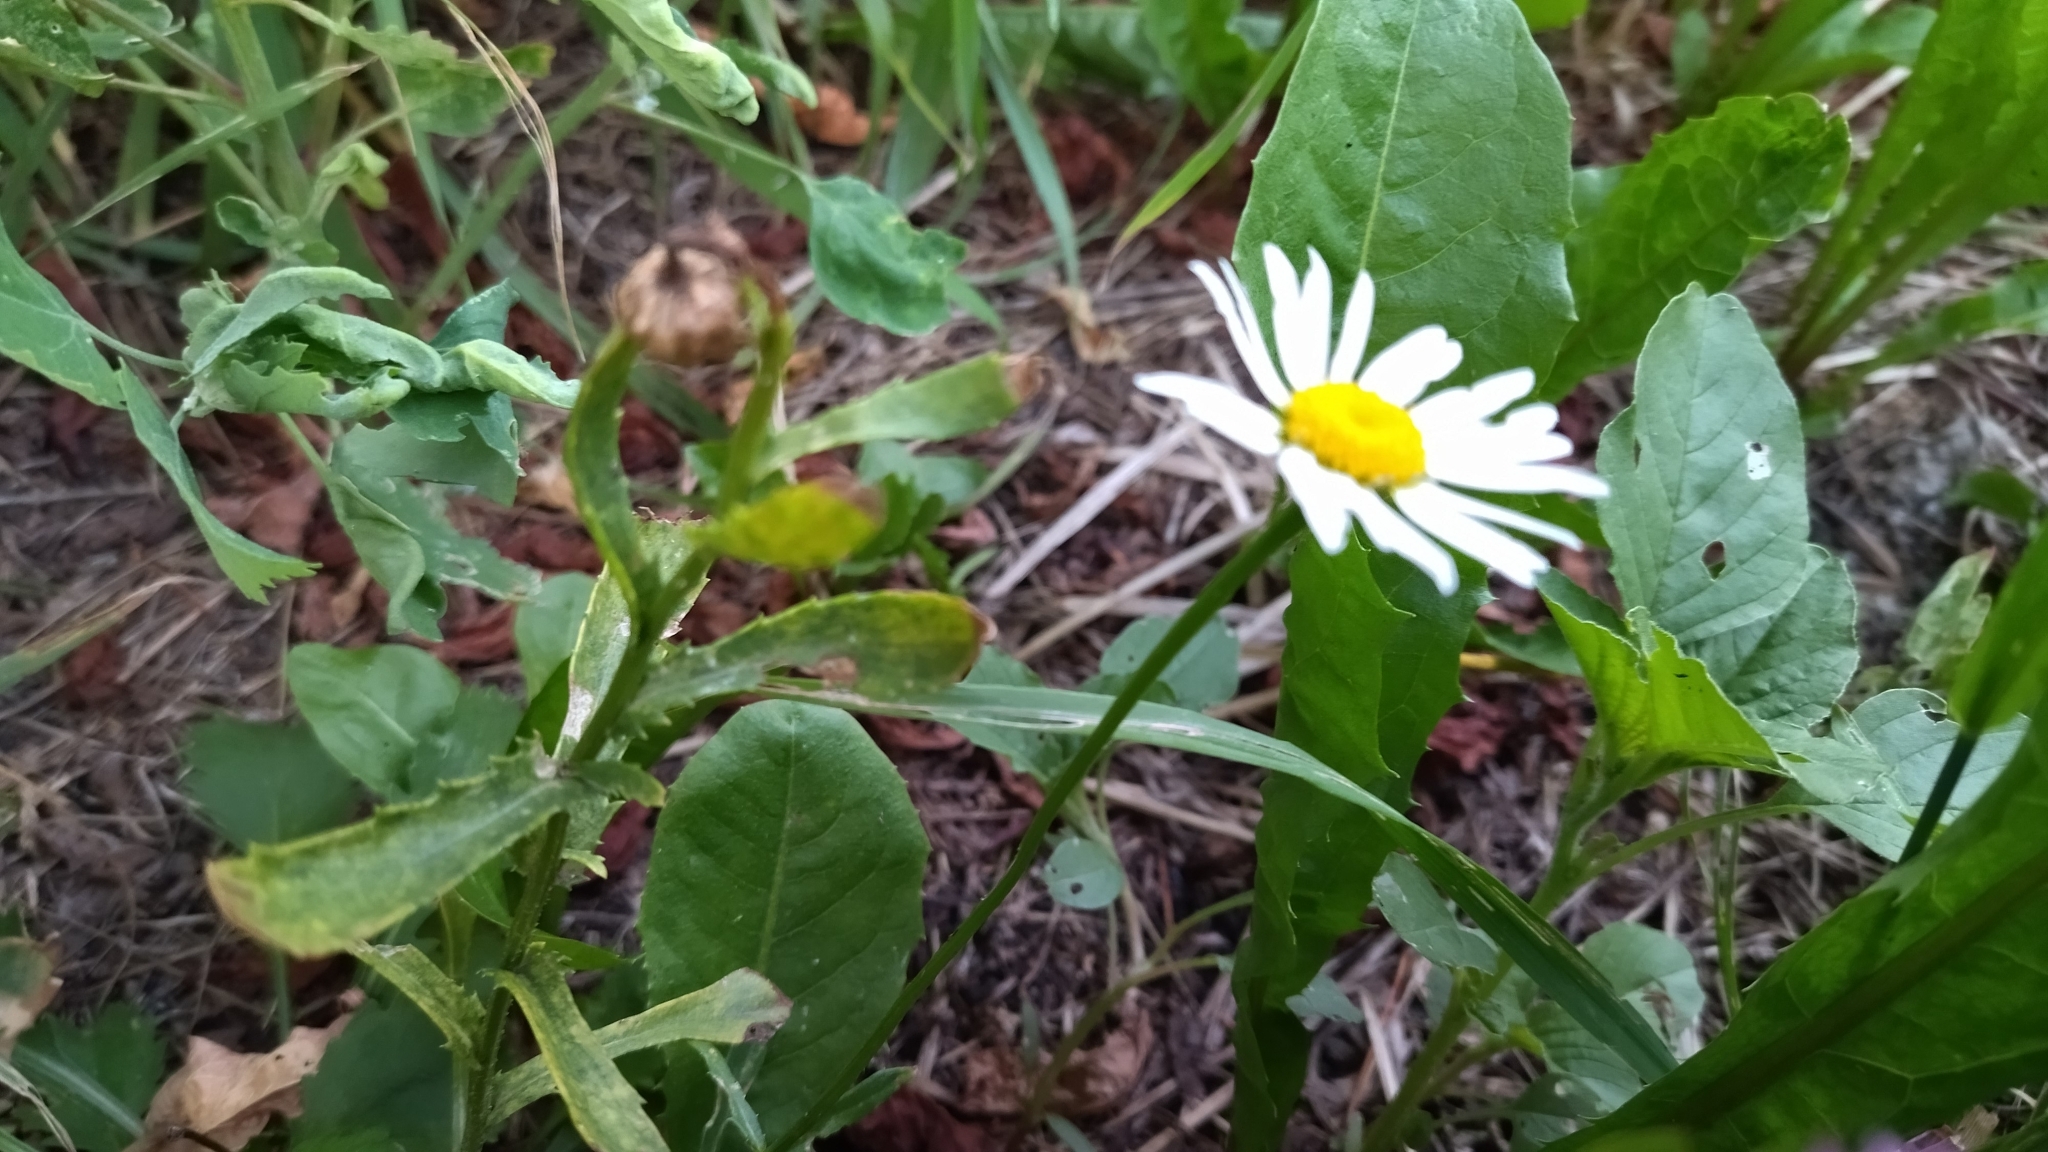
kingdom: Plantae
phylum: Tracheophyta
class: Magnoliopsida
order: Asterales
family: Asteraceae
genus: Leucanthemum
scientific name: Leucanthemum vulgare
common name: Oxeye daisy
